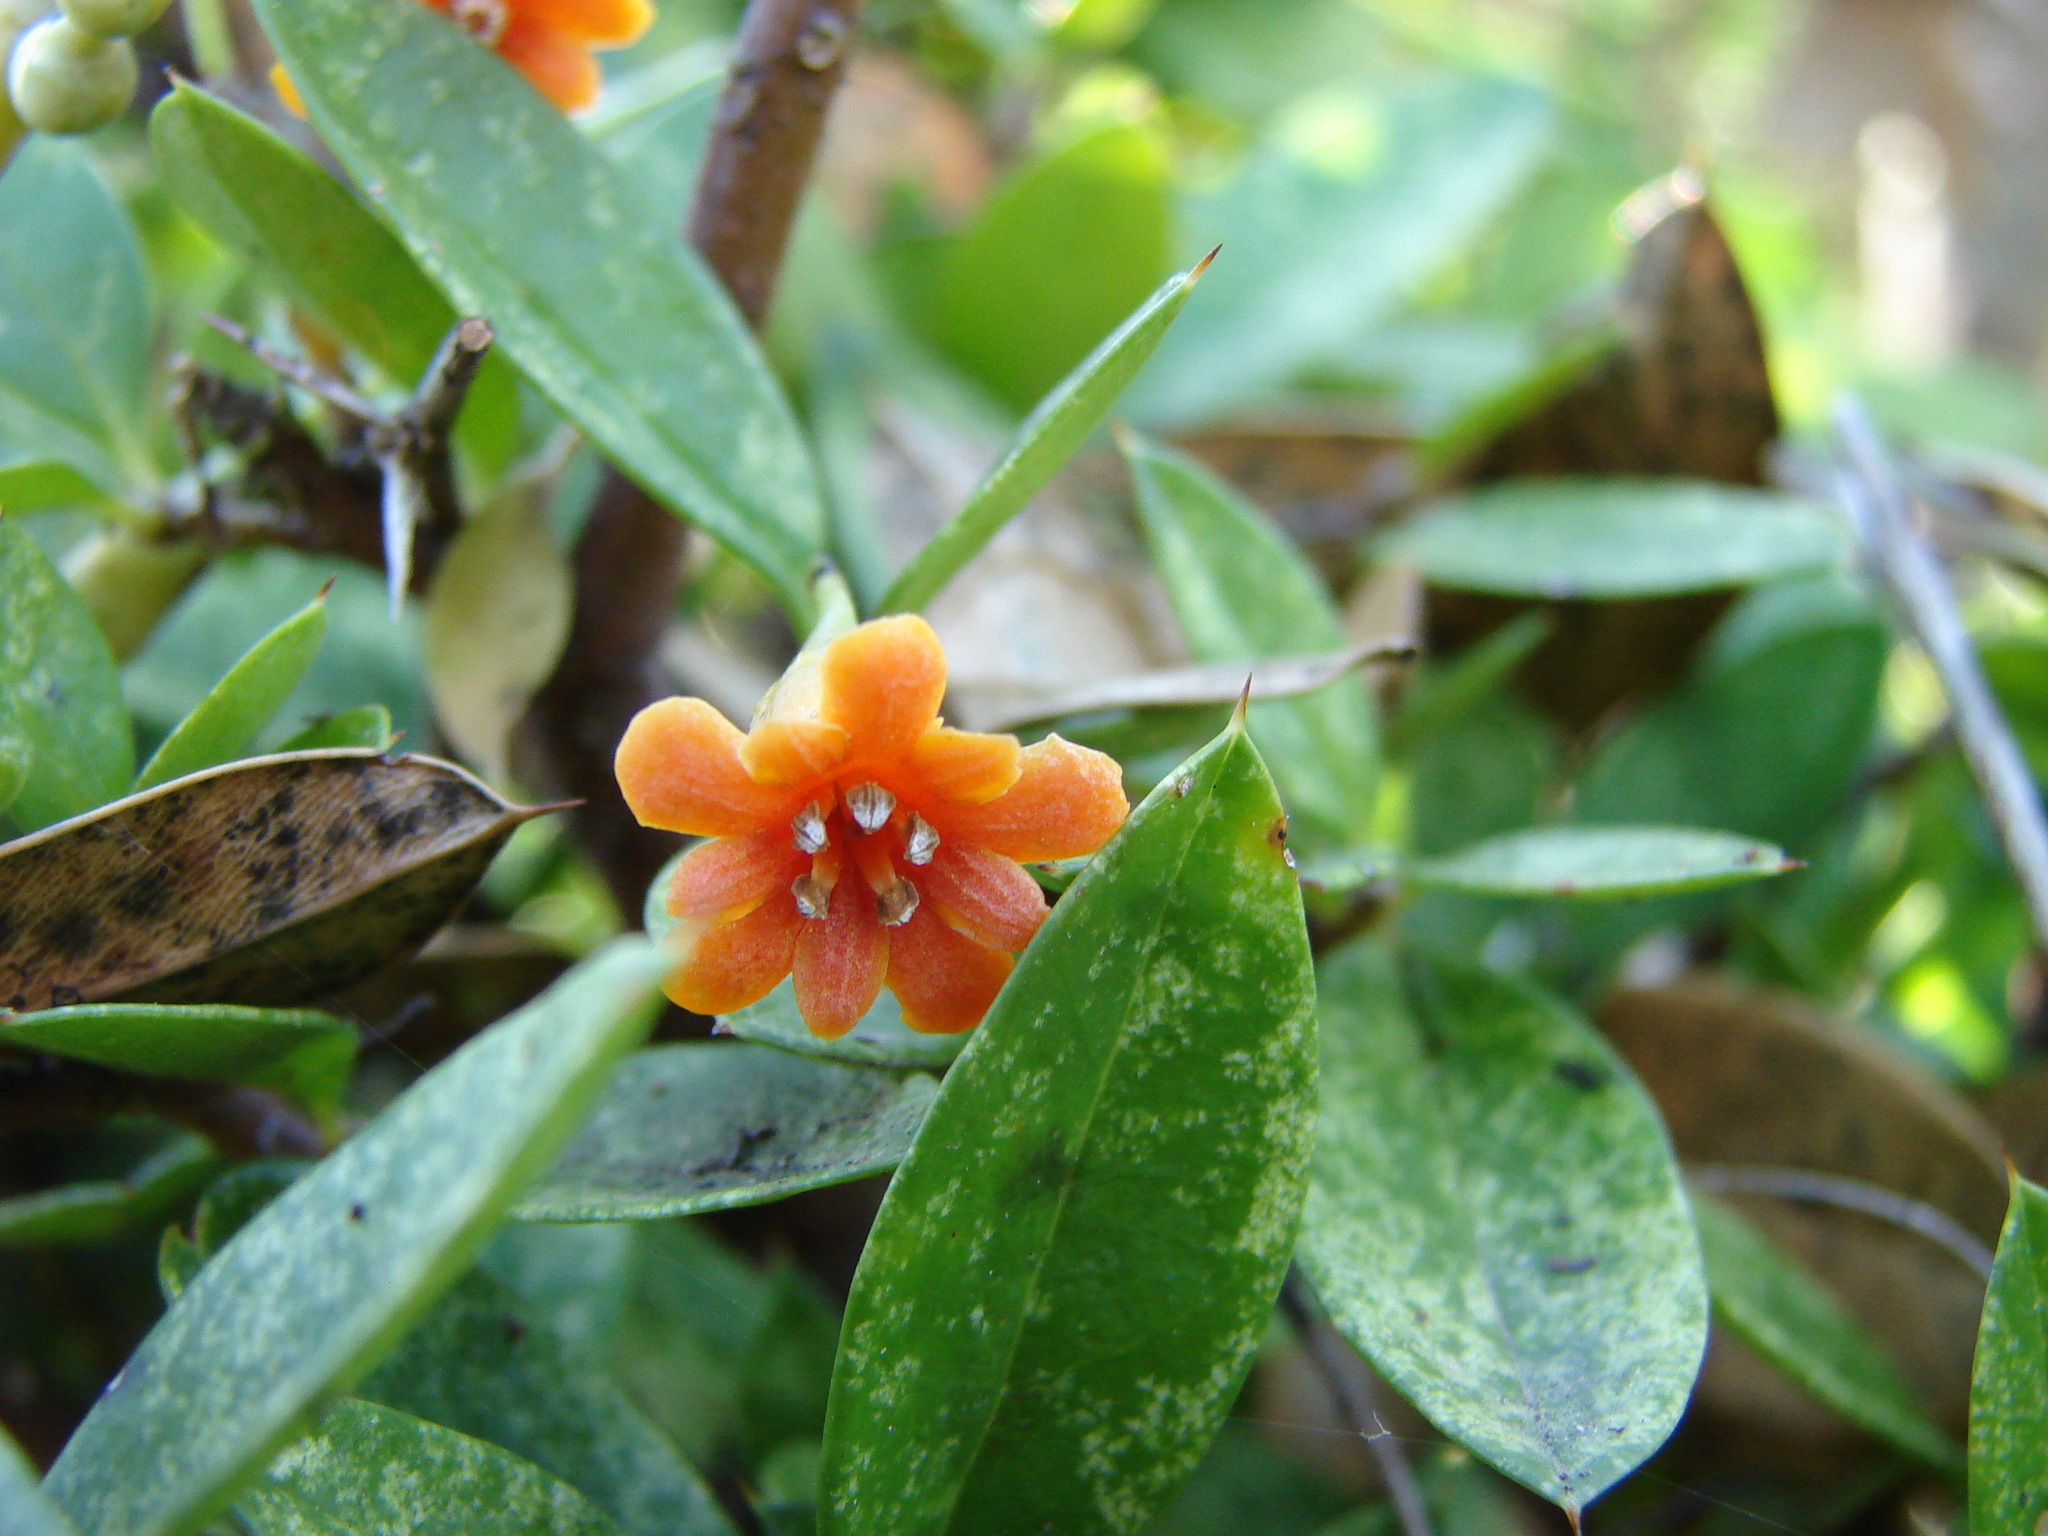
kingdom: Plantae
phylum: Tracheophyta
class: Magnoliopsida
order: Ericales
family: Primulaceae
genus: Bonellia
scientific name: Bonellia macrocarpa
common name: Primrose
